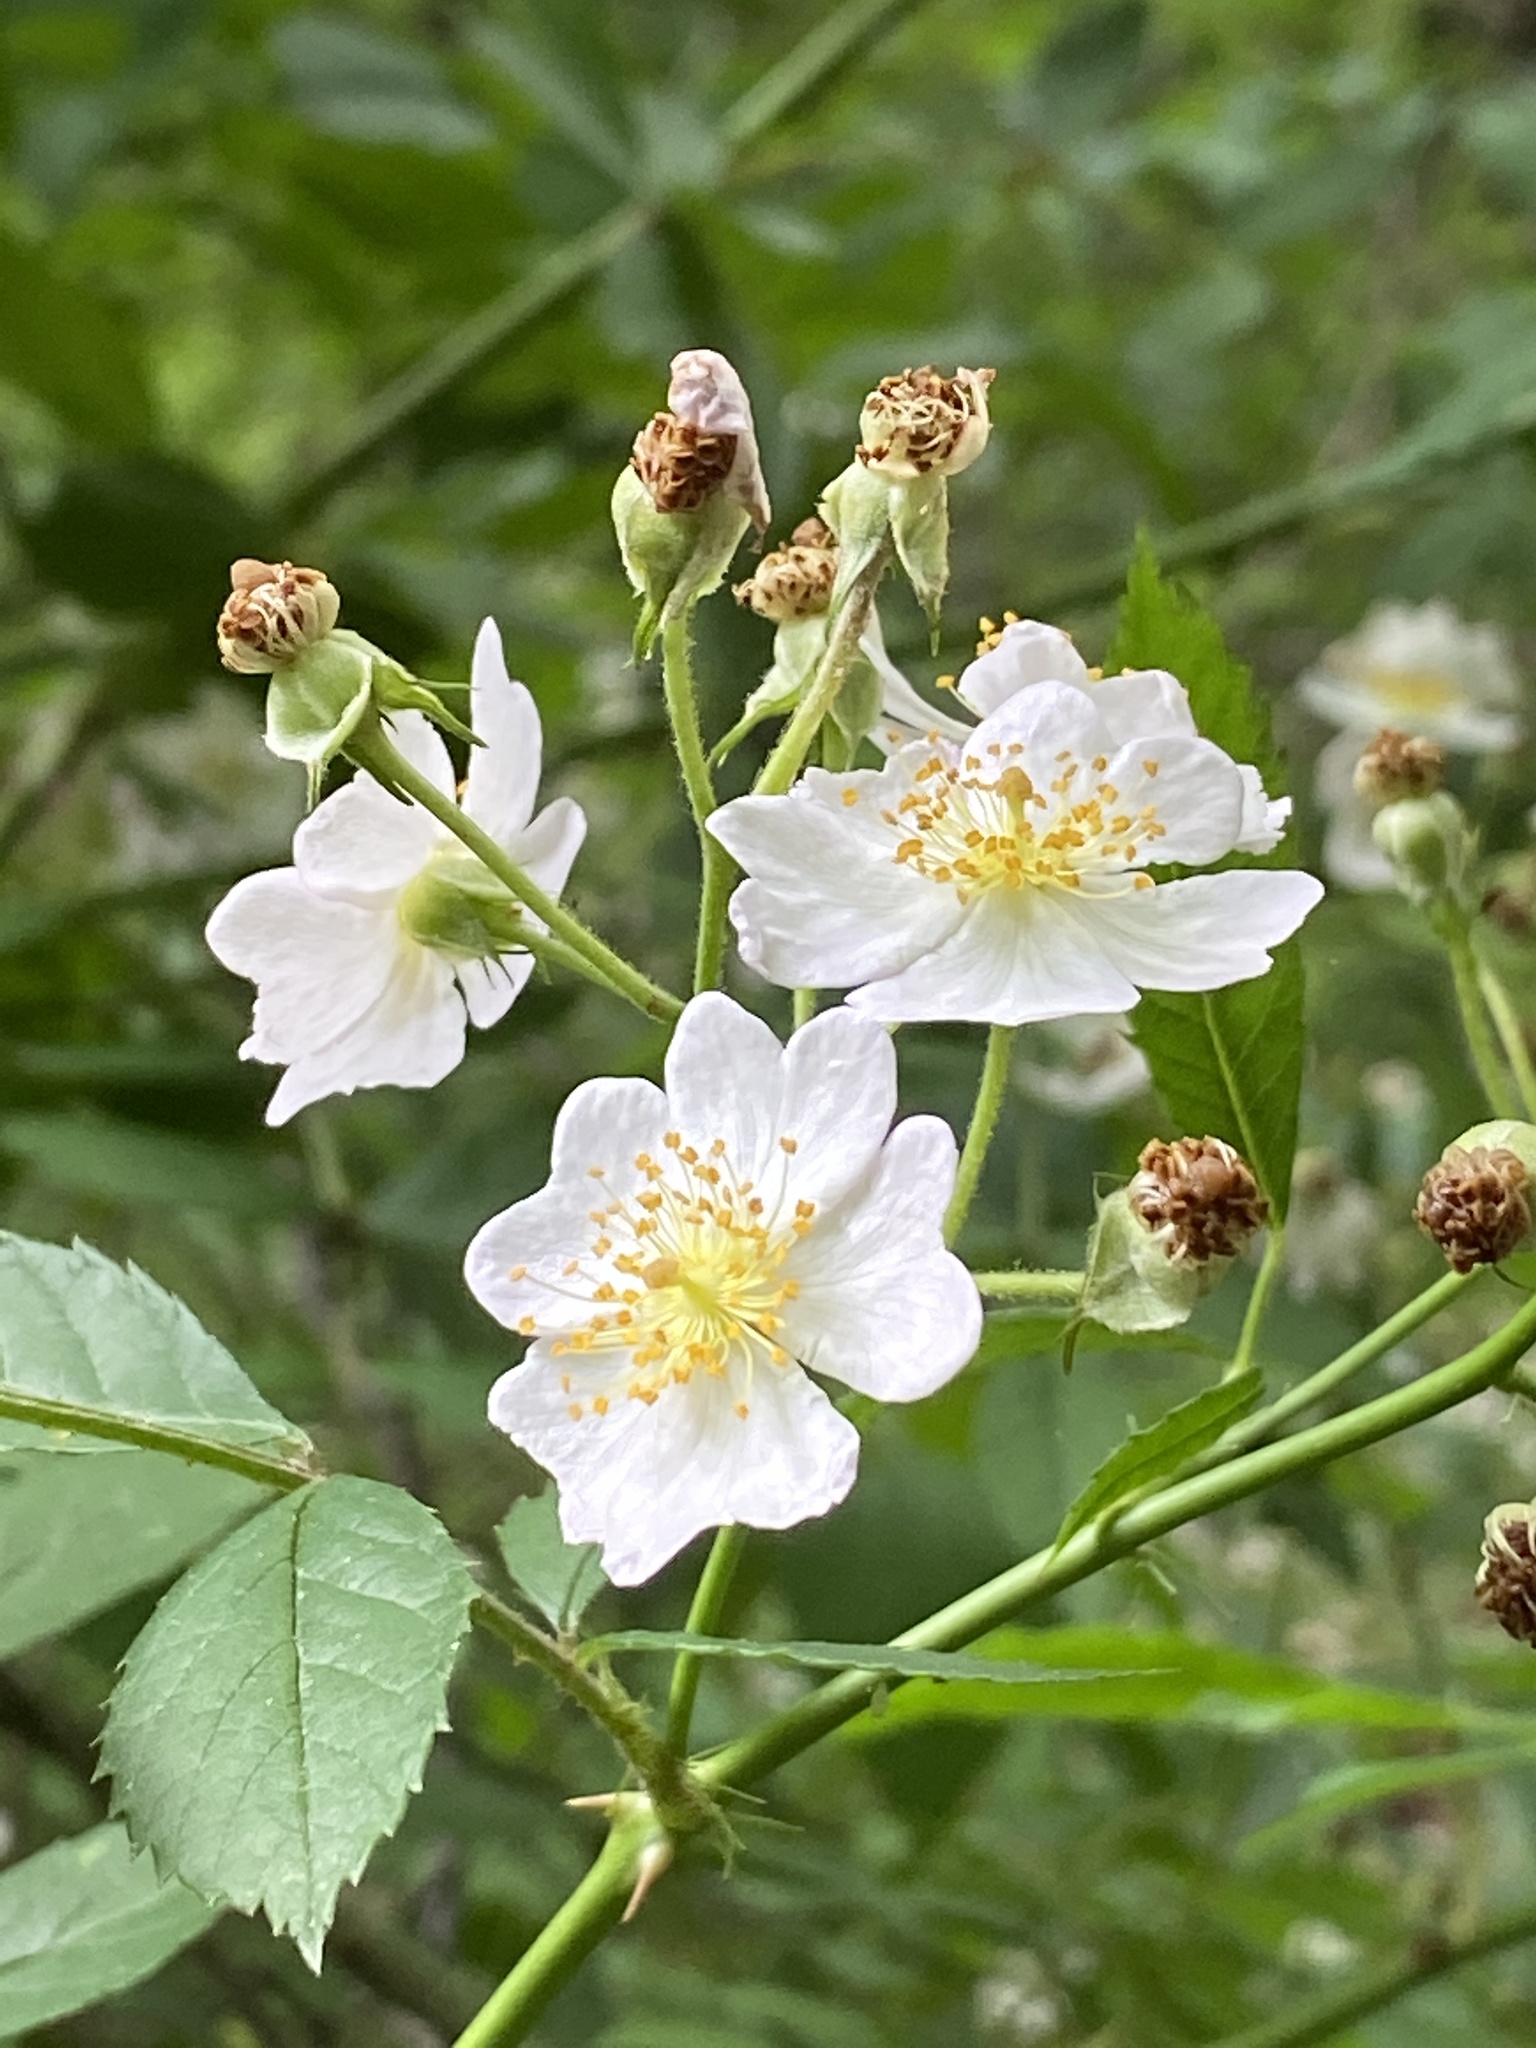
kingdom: Plantae
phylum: Tracheophyta
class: Magnoliopsida
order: Rosales
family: Rosaceae
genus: Rosa
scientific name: Rosa multiflora
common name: Multiflora rose
